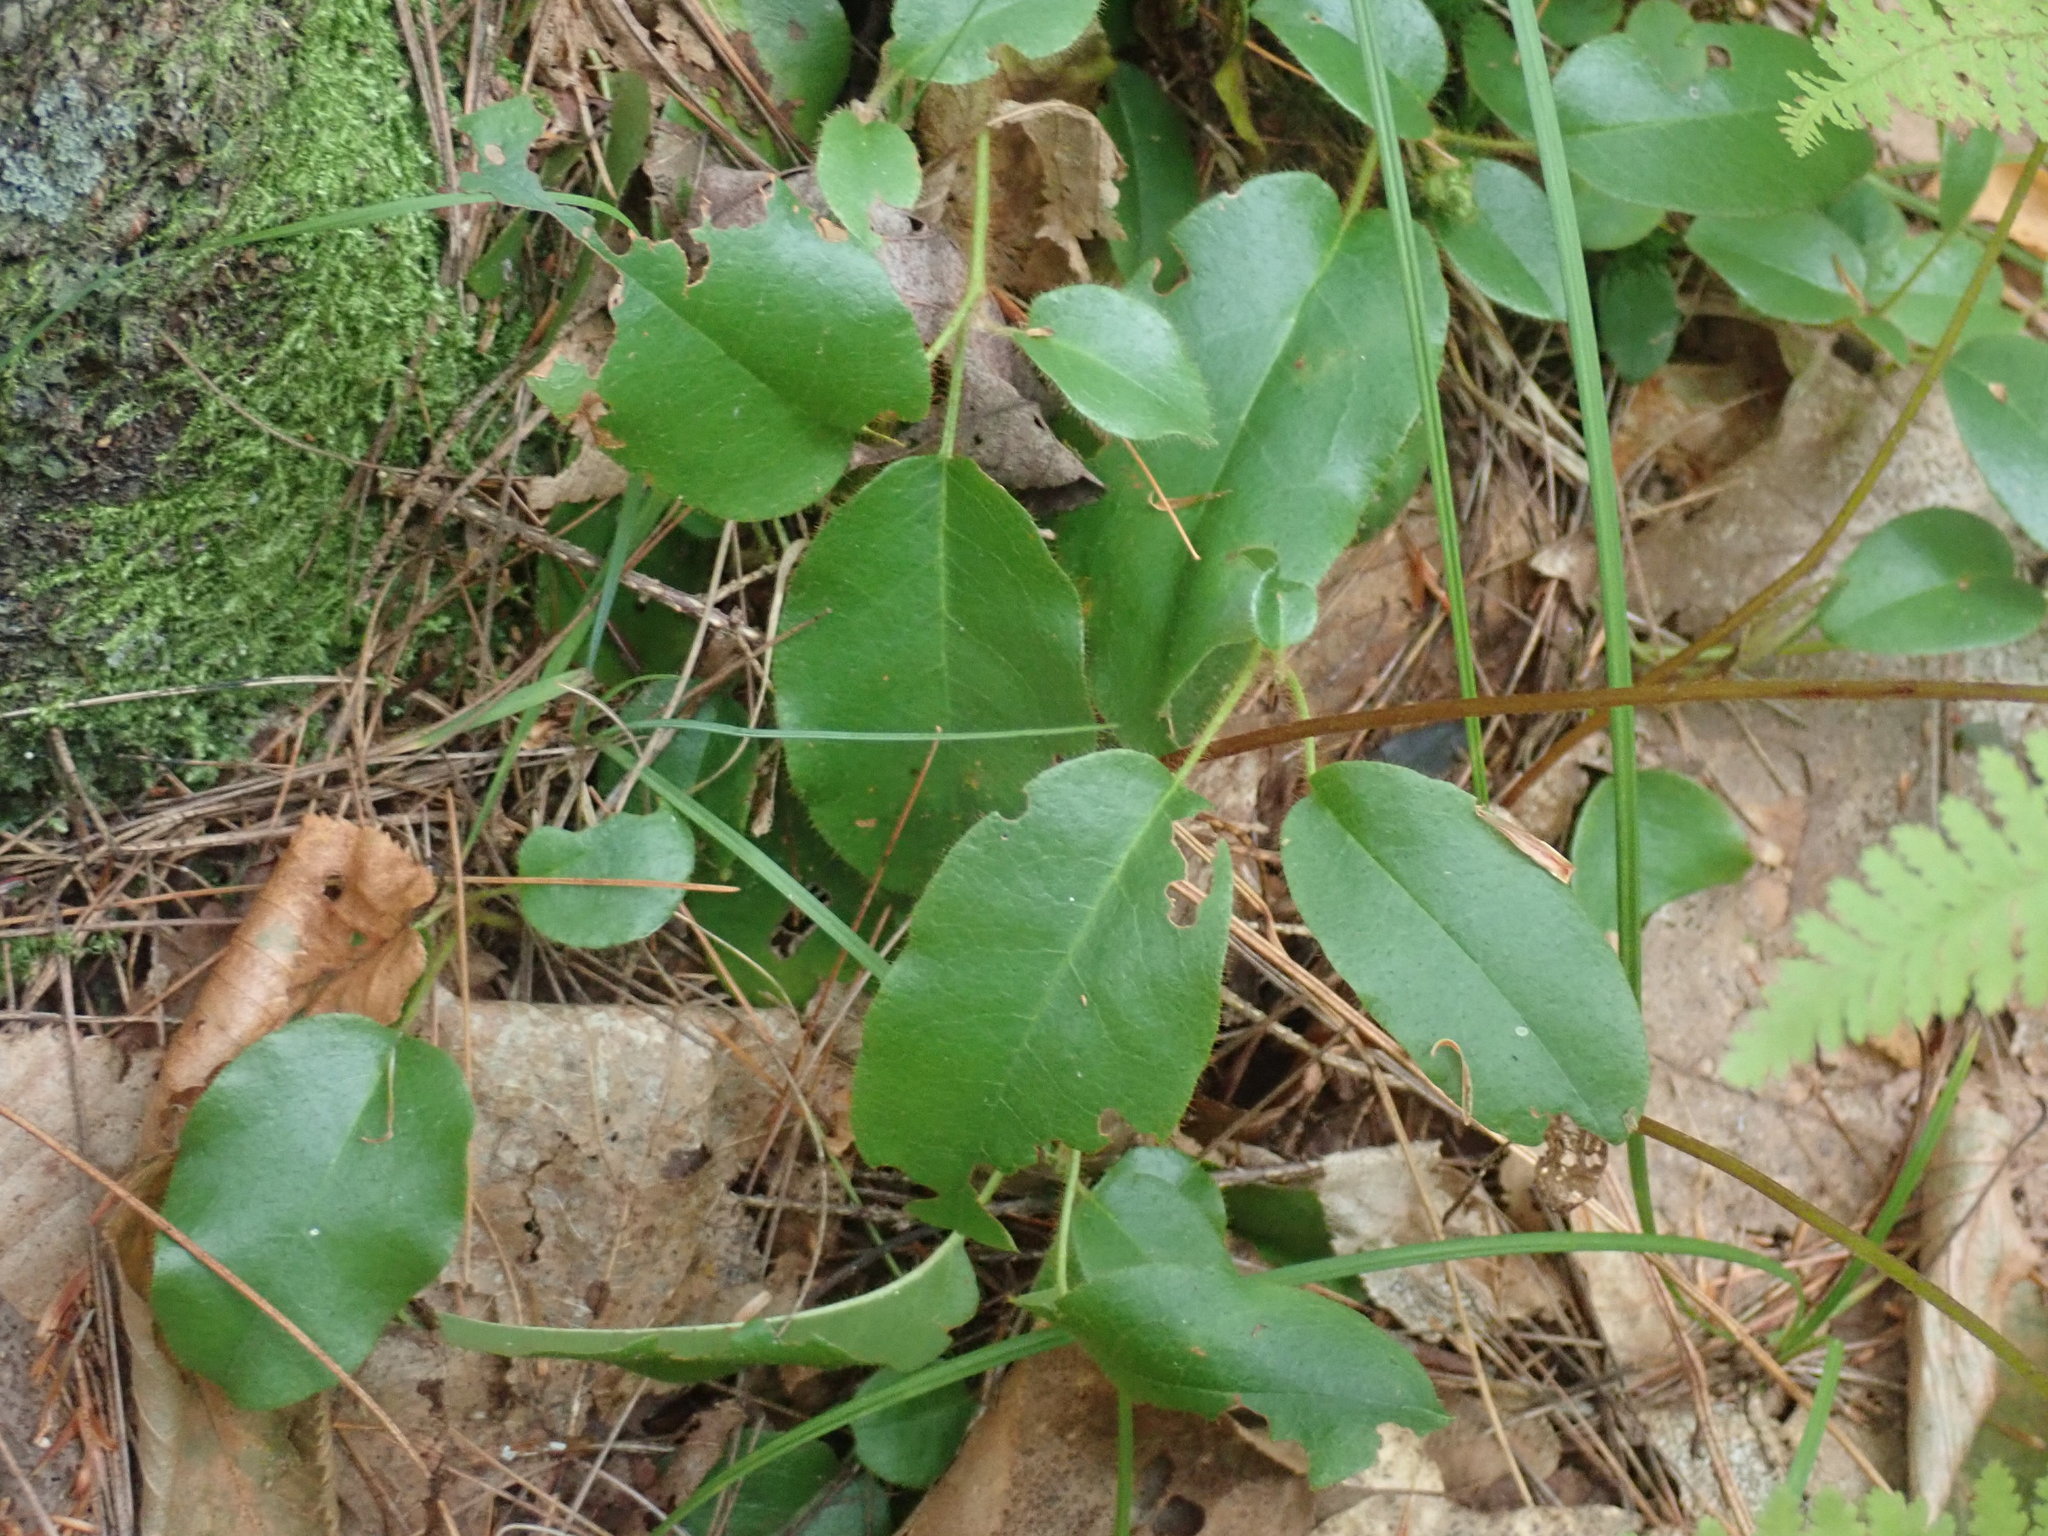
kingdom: Plantae
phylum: Tracheophyta
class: Magnoliopsida
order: Ericales
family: Ericaceae
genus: Epigaea
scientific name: Epigaea repens
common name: Gravelroot
